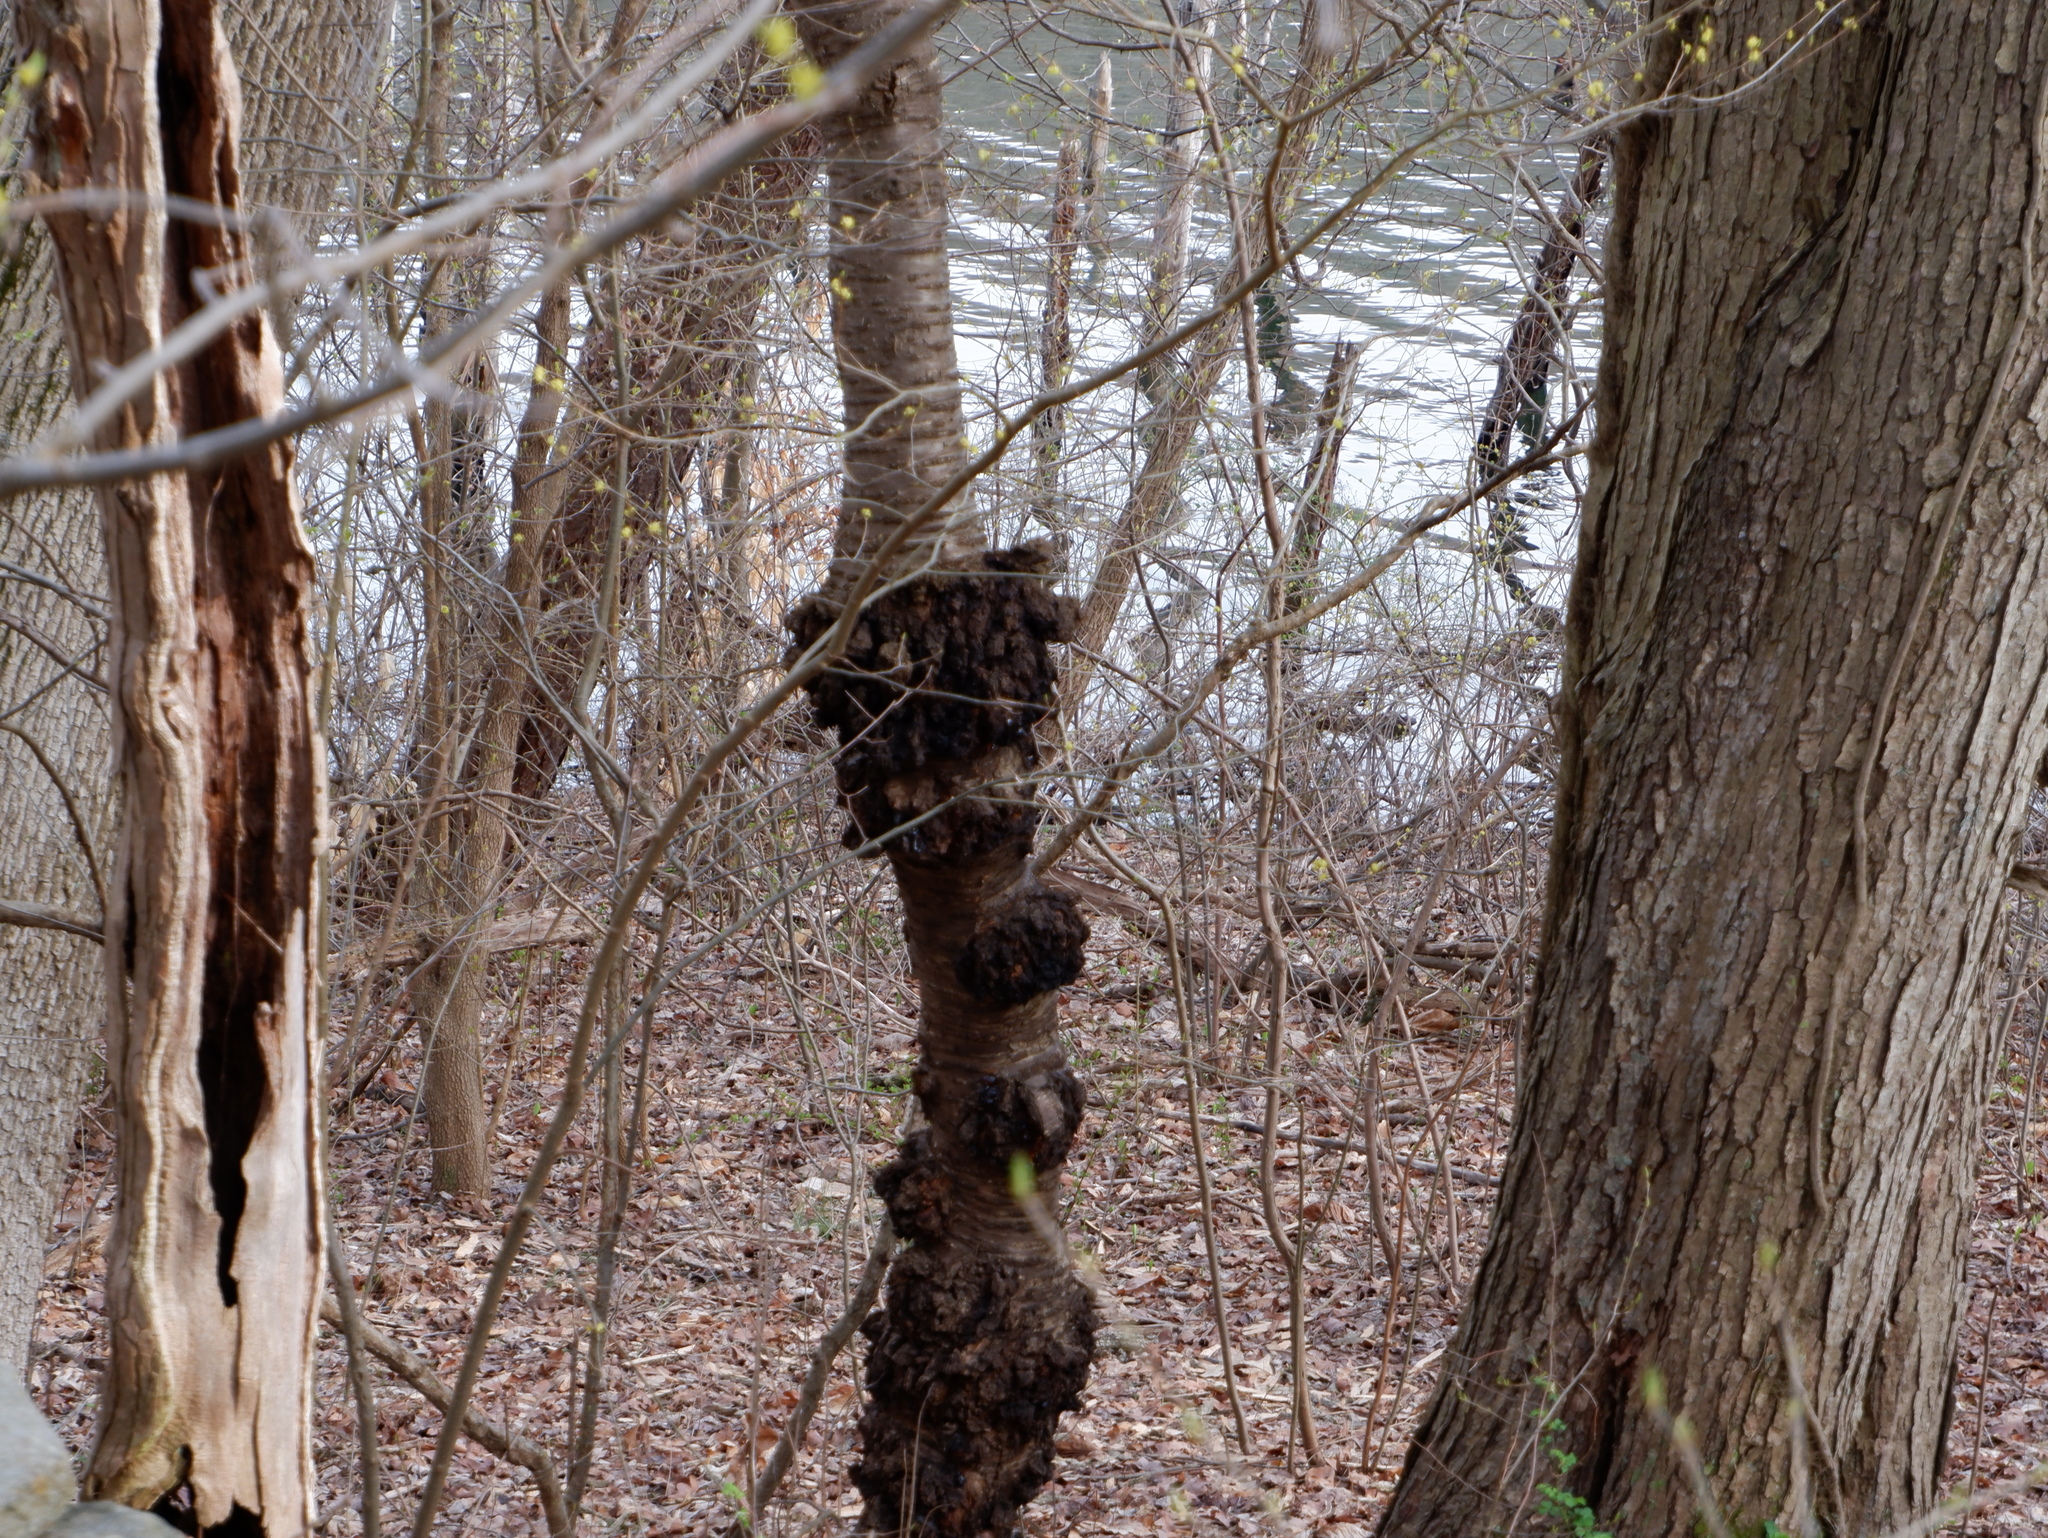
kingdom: Fungi
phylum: Ascomycota
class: Dothideomycetes
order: Venturiales
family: Venturiaceae
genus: Apiosporina
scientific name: Apiosporina morbosa
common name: Black knot
